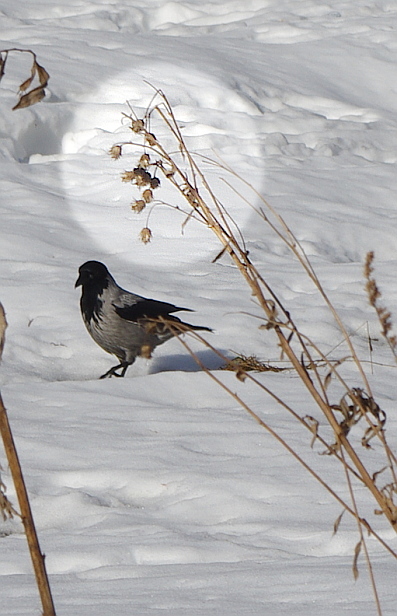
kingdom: Plantae
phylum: Tracheophyta
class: Magnoliopsida
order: Asterales
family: Asteraceae
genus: Cirsium
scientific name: Cirsium arvense
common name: Creeping thistle
